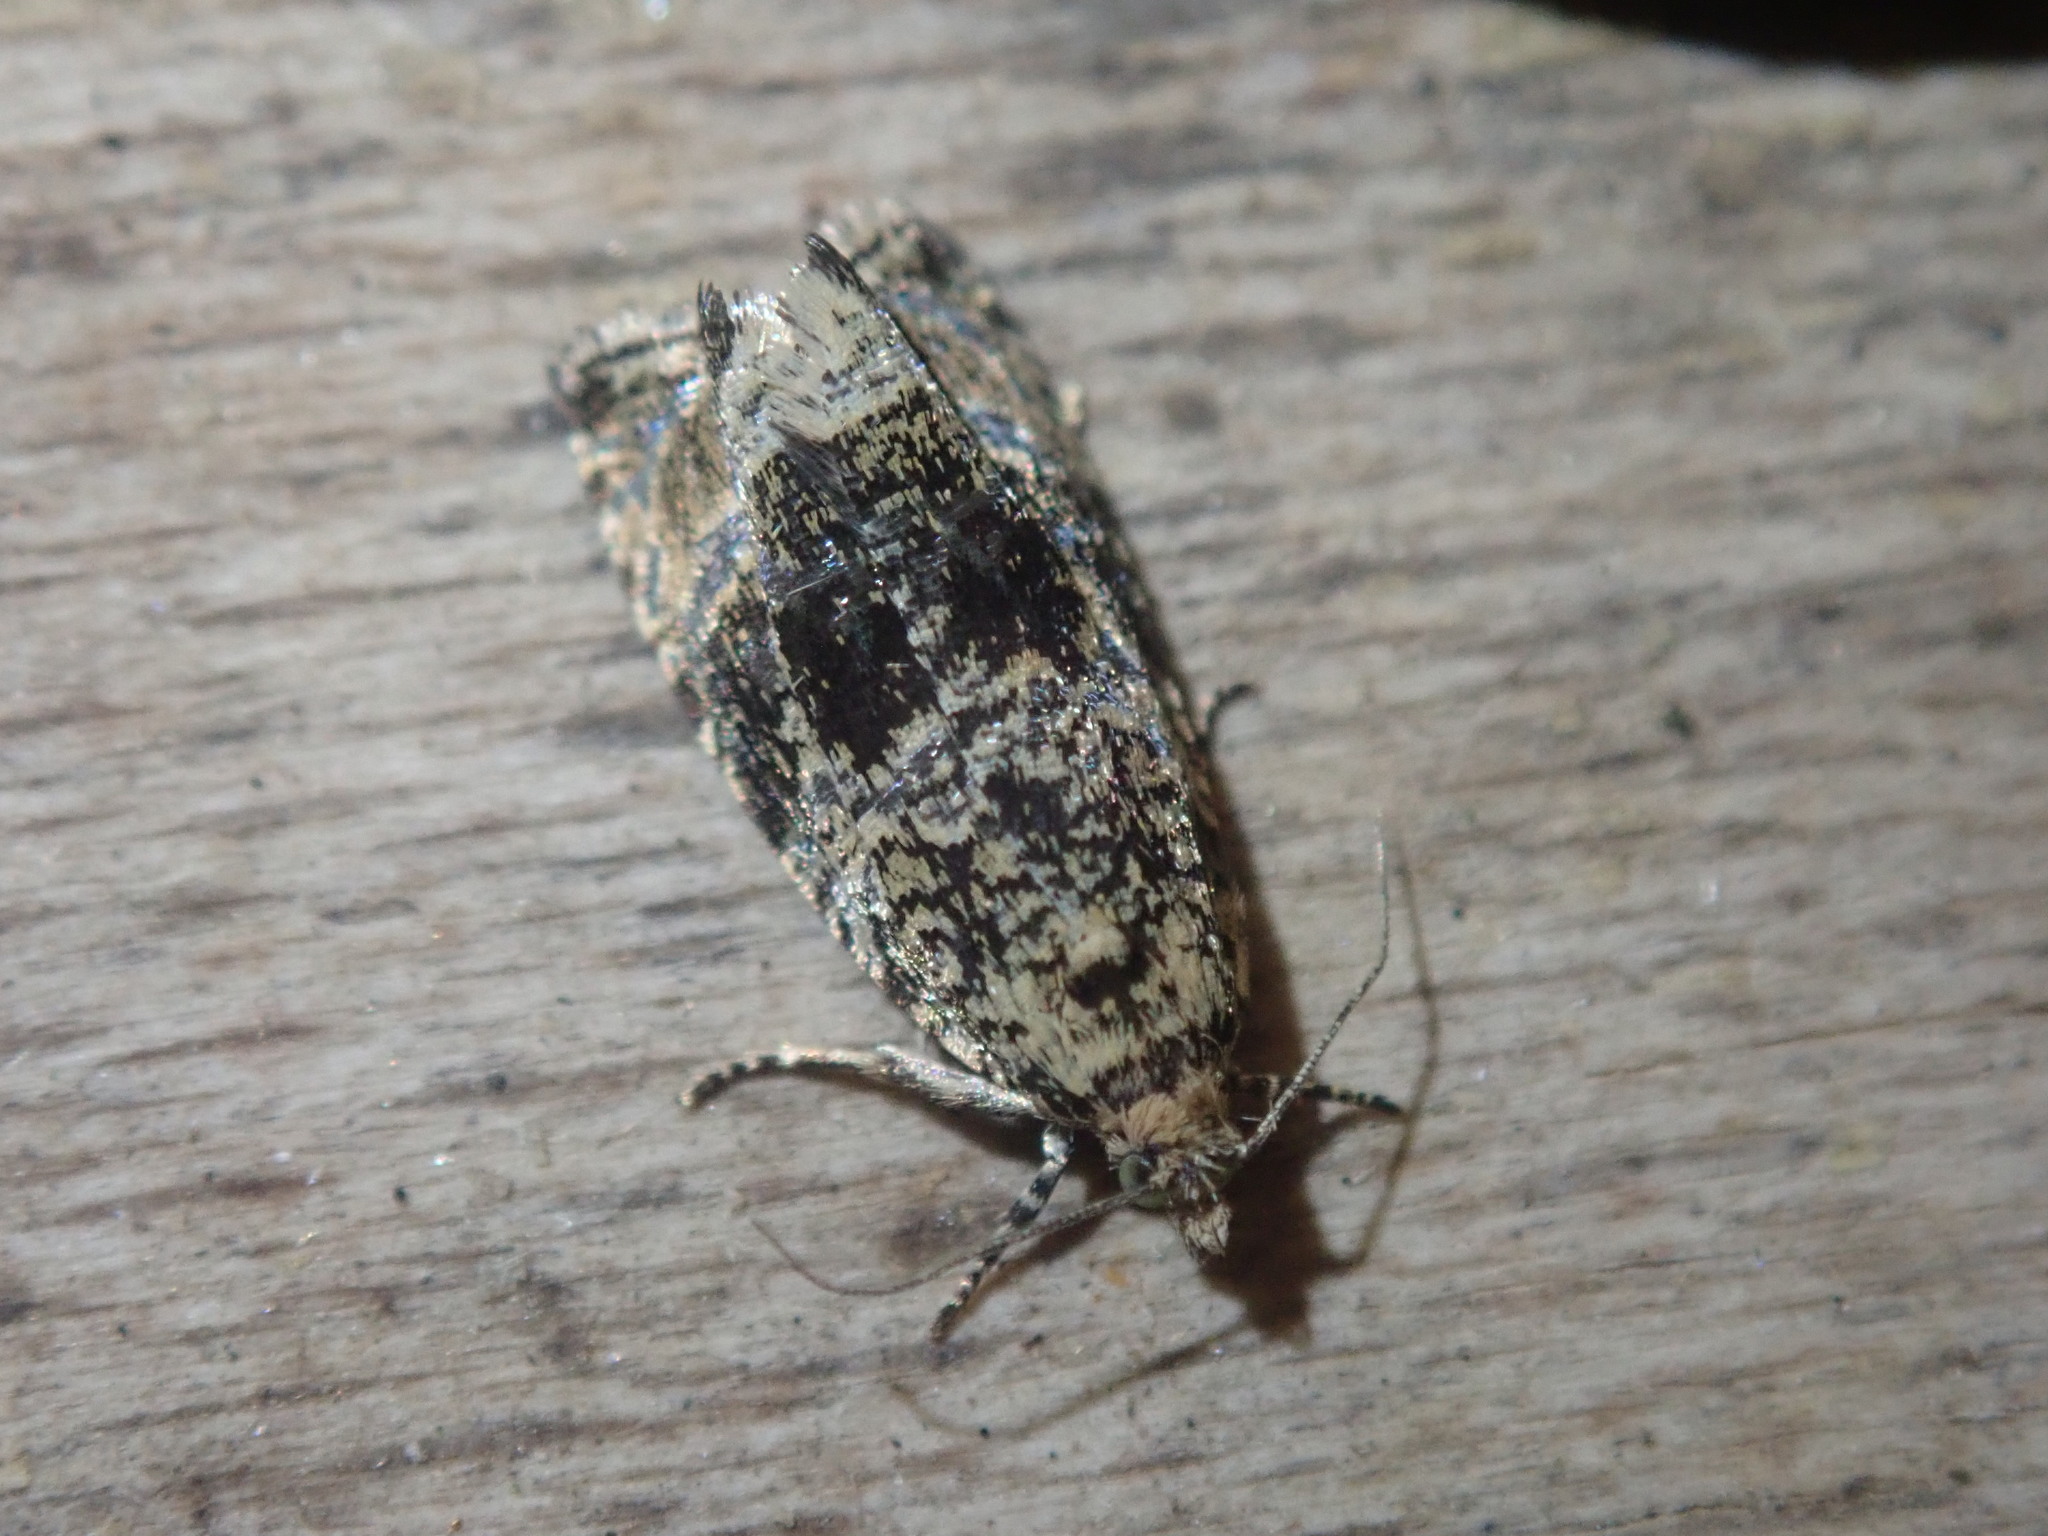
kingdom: Animalia
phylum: Arthropoda
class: Insecta
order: Lepidoptera
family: Tortricidae
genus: Syricoris
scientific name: Syricoris lacunana
